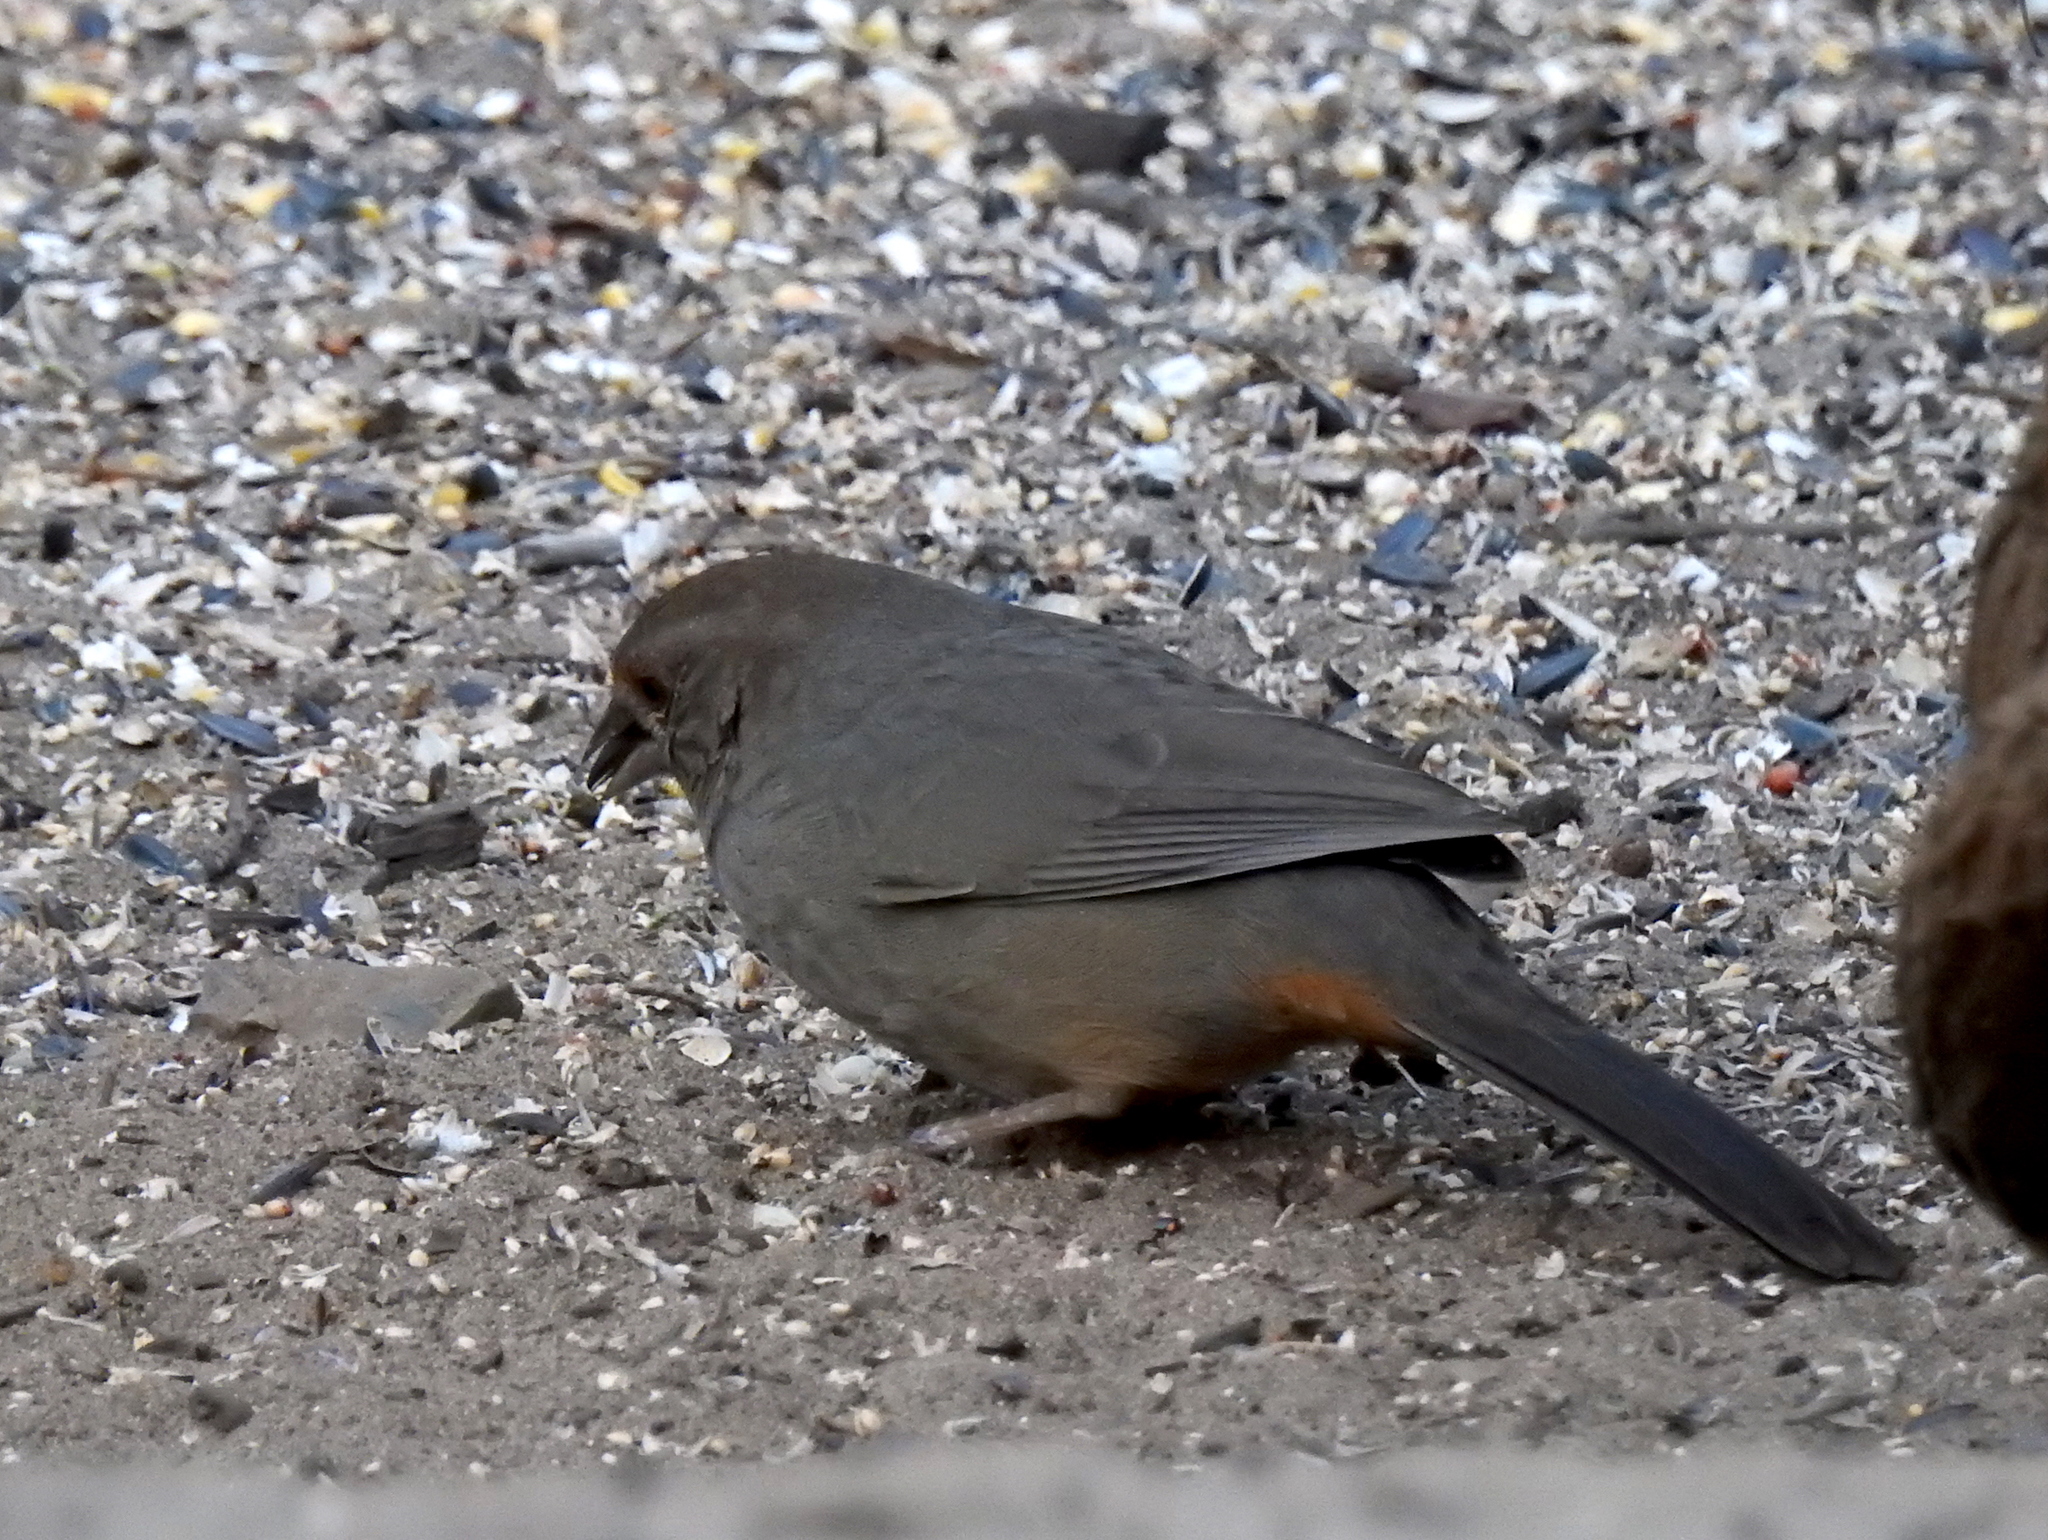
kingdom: Animalia
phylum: Chordata
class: Aves
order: Passeriformes
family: Passerellidae
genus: Melozone
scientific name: Melozone crissalis
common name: California towhee
